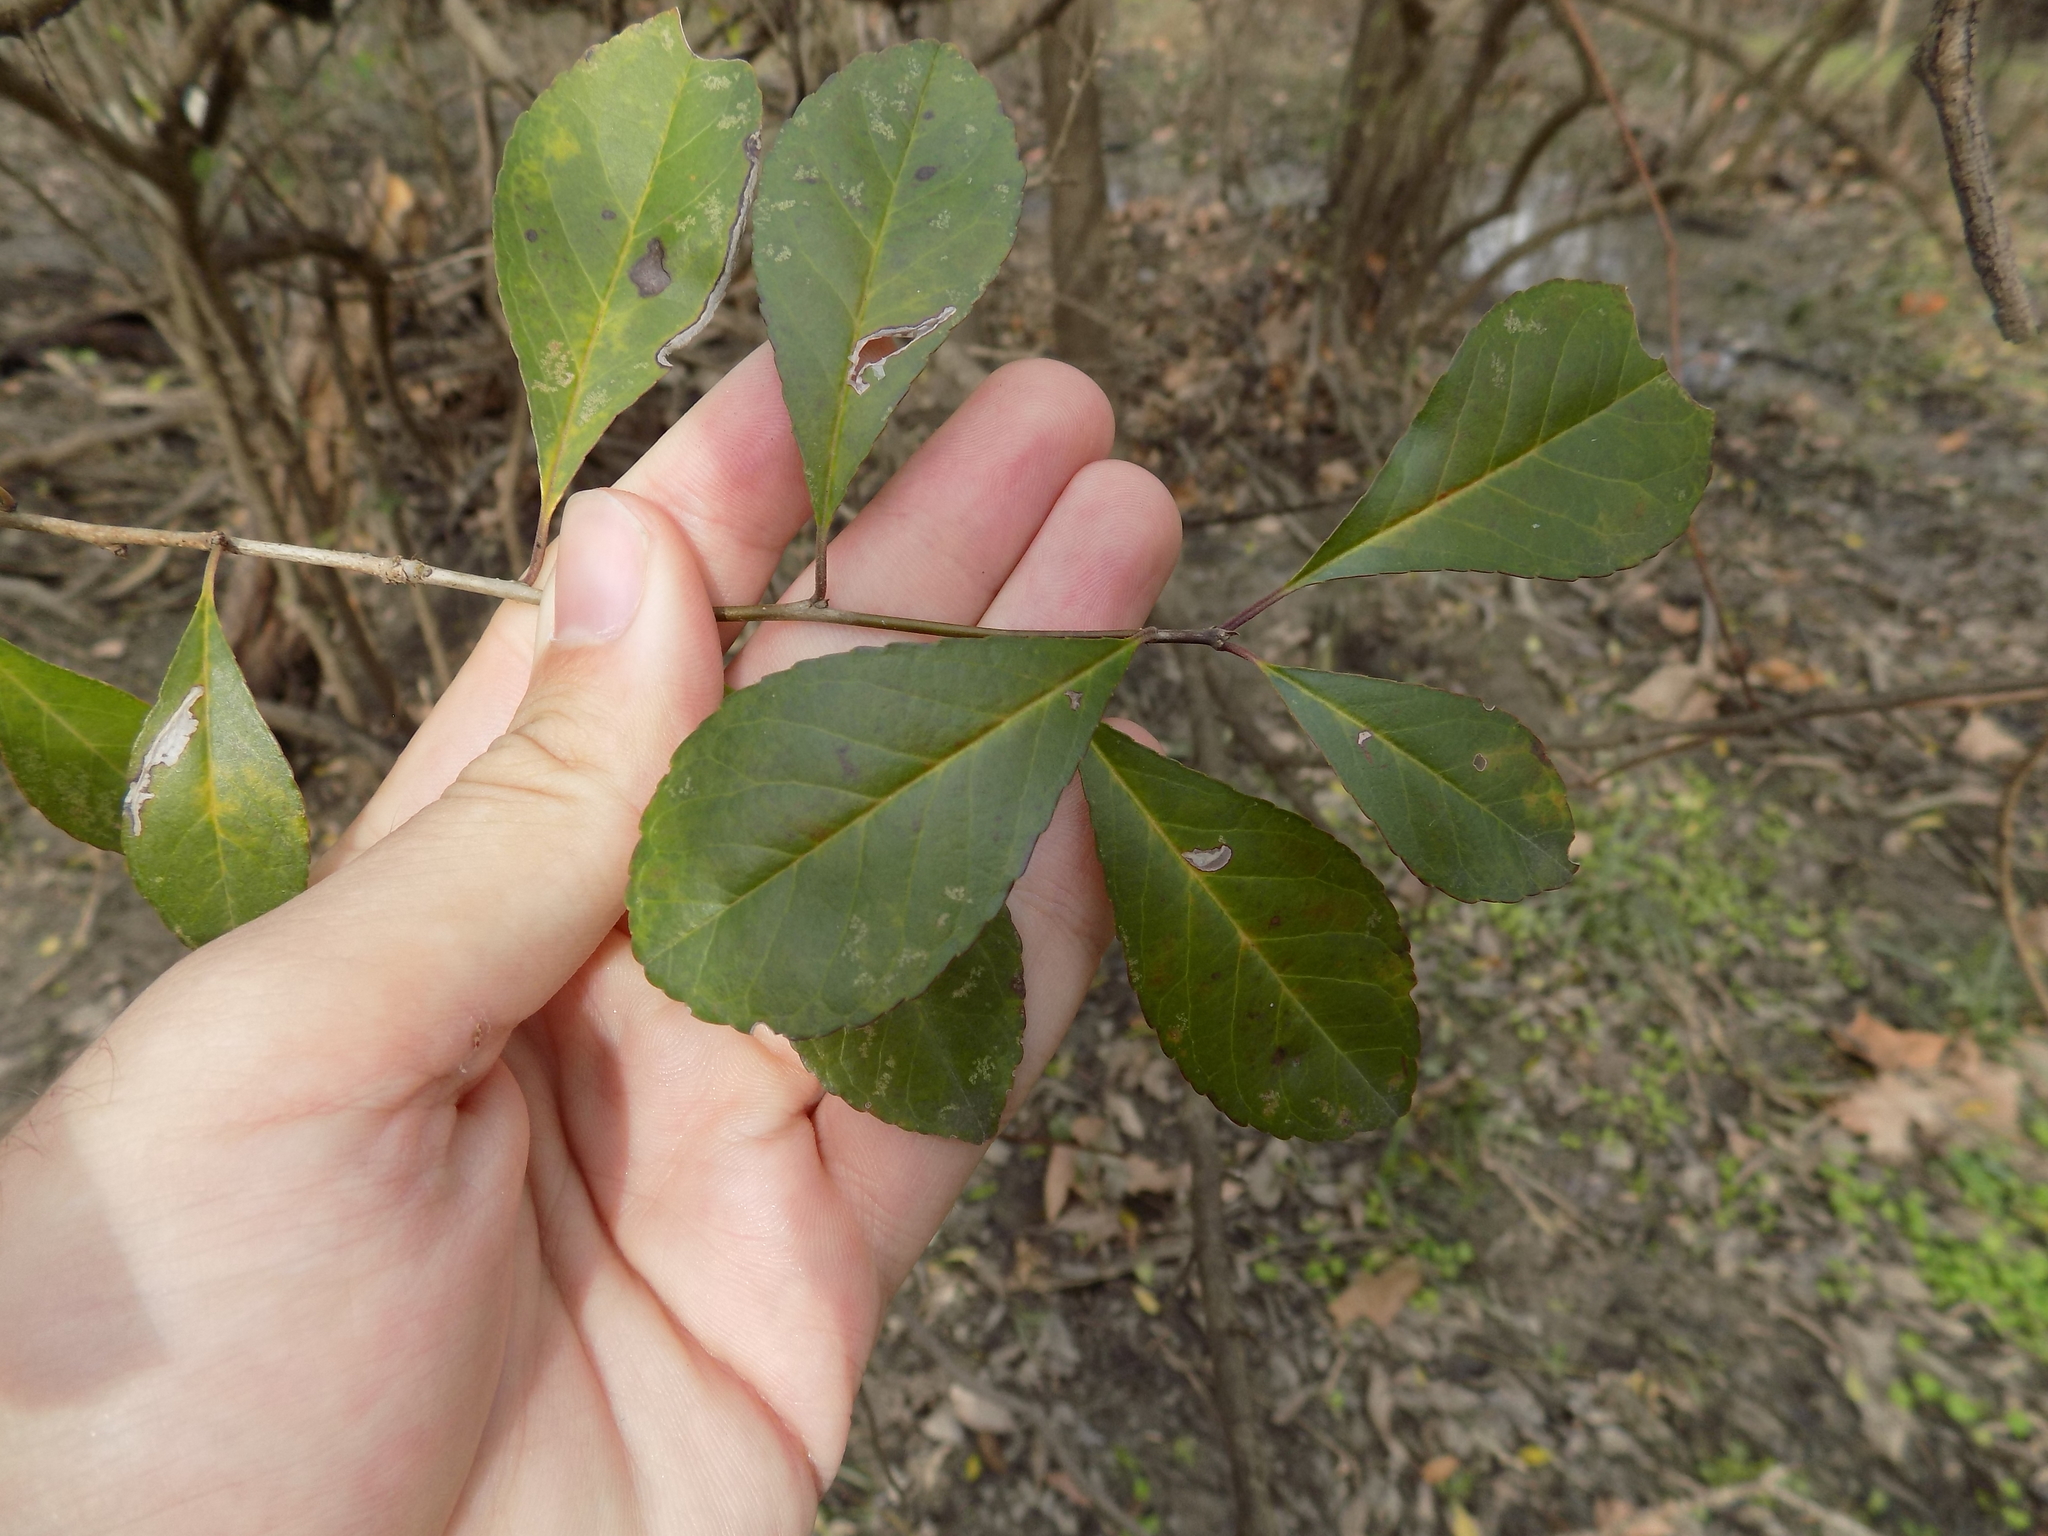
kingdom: Plantae
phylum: Tracheophyta
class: Magnoliopsida
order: Aquifoliales
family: Aquifoliaceae
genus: Ilex
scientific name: Ilex decidua
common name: Possum-haw
